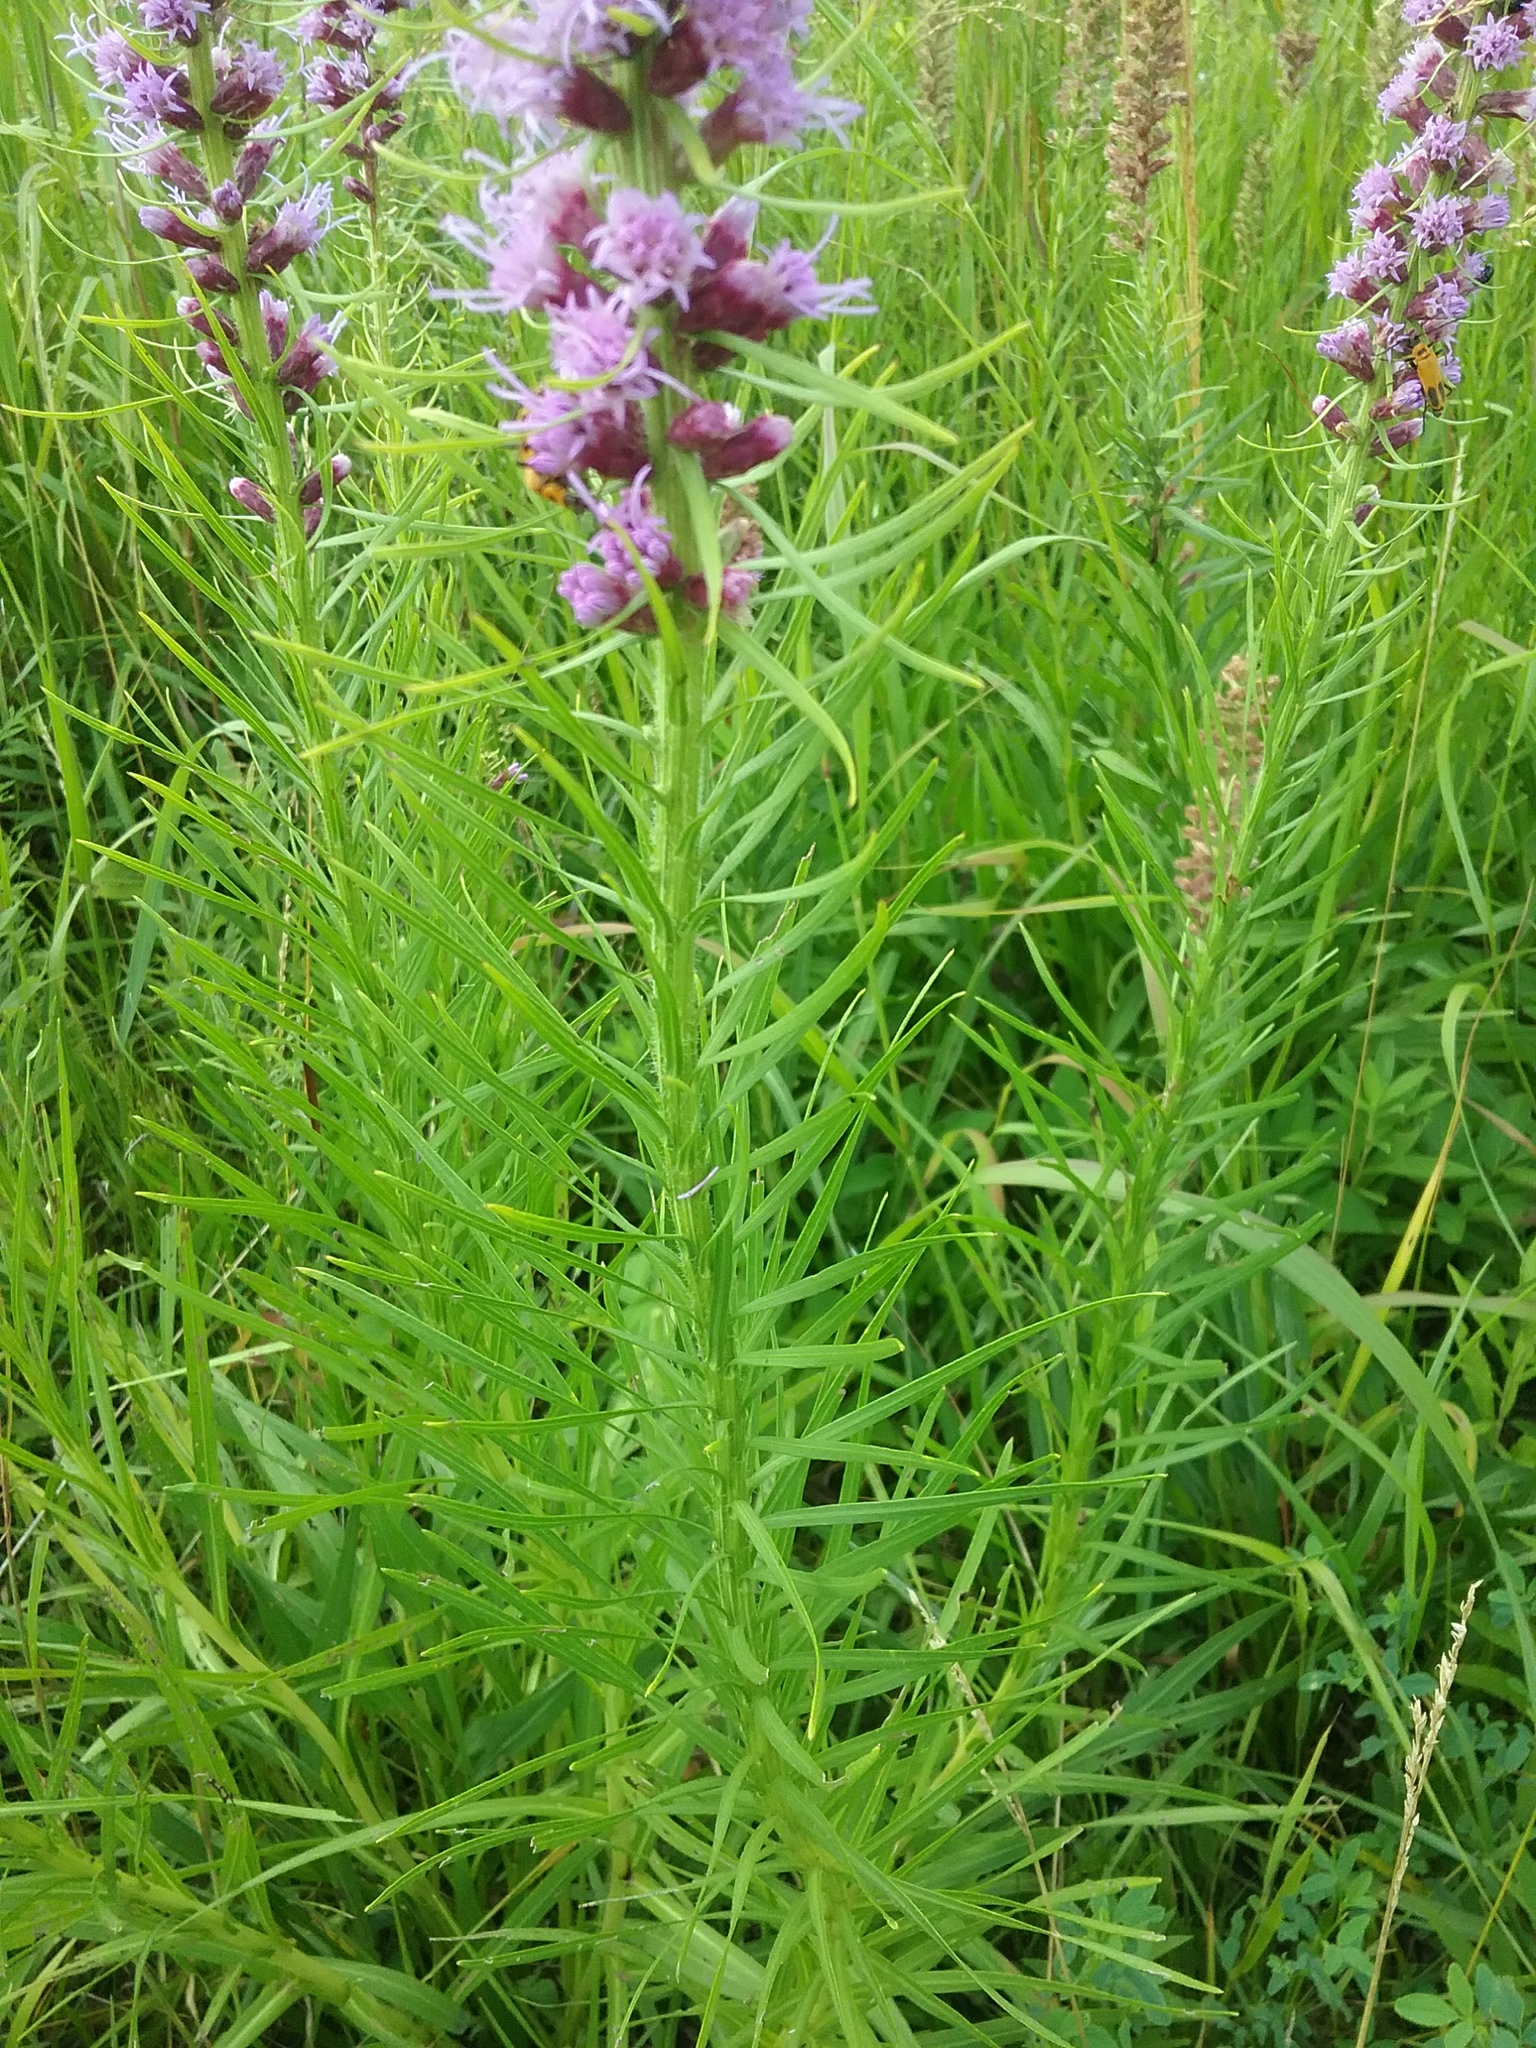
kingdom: Plantae
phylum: Tracheophyta
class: Magnoliopsida
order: Asterales
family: Asteraceae
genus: Liatris
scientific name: Liatris spicata
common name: Florist gayfeather
